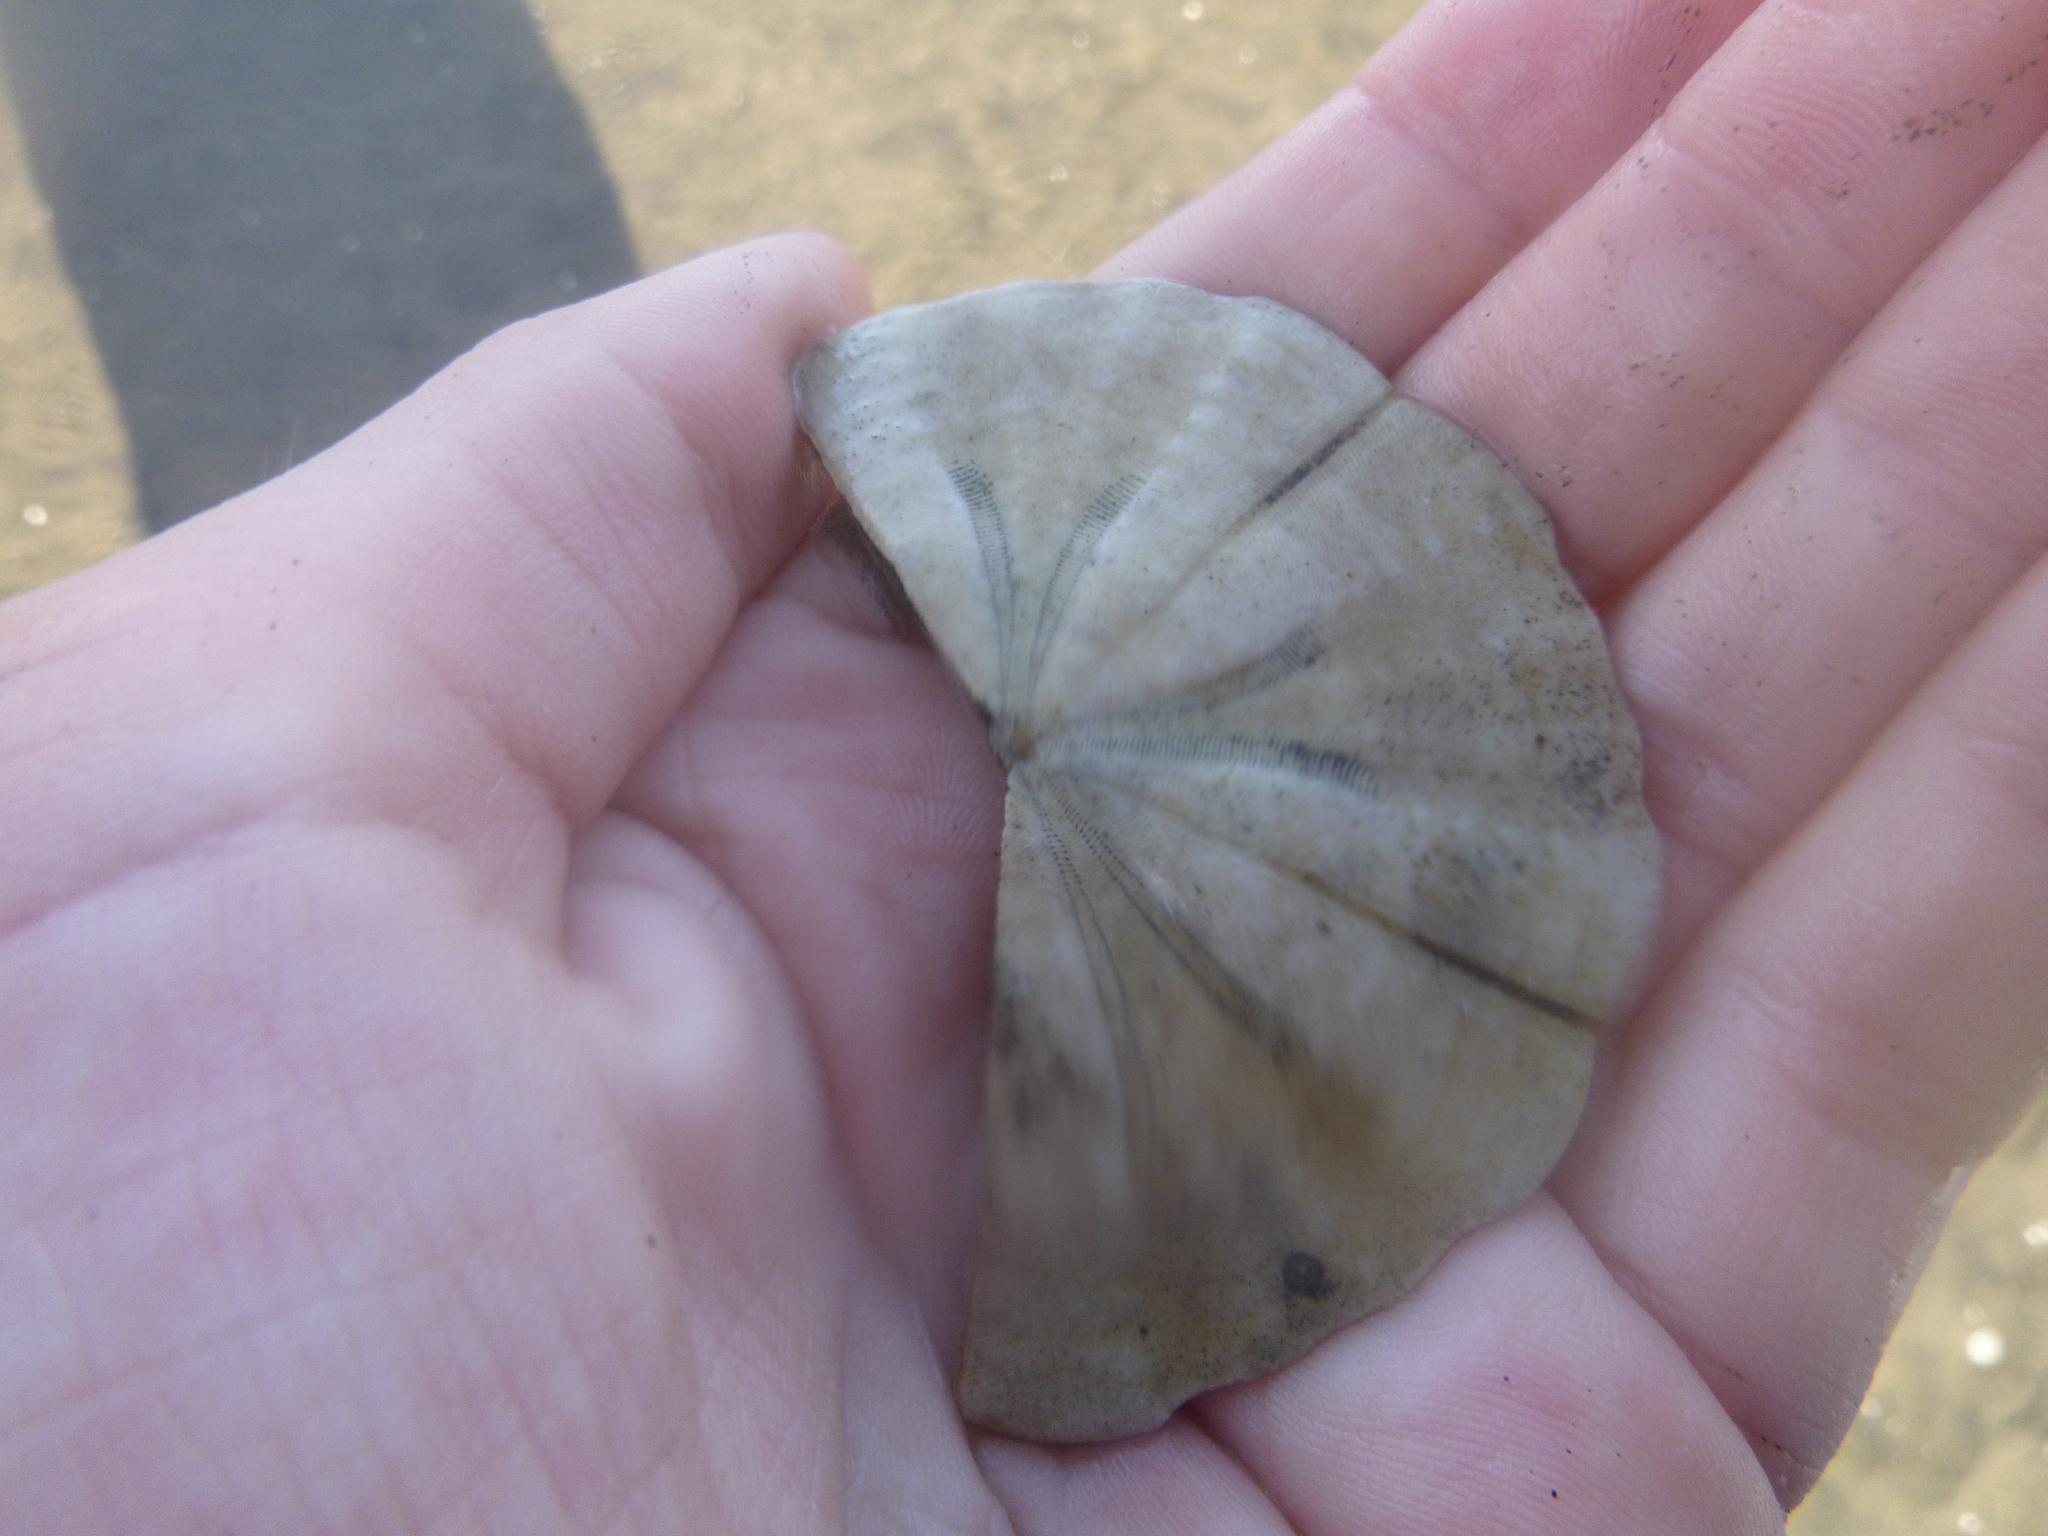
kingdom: Animalia
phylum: Echinodermata
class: Echinoidea
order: Clypeasteroida
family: Clypeasteridae
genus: Fellaster
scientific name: Fellaster zelandiae
